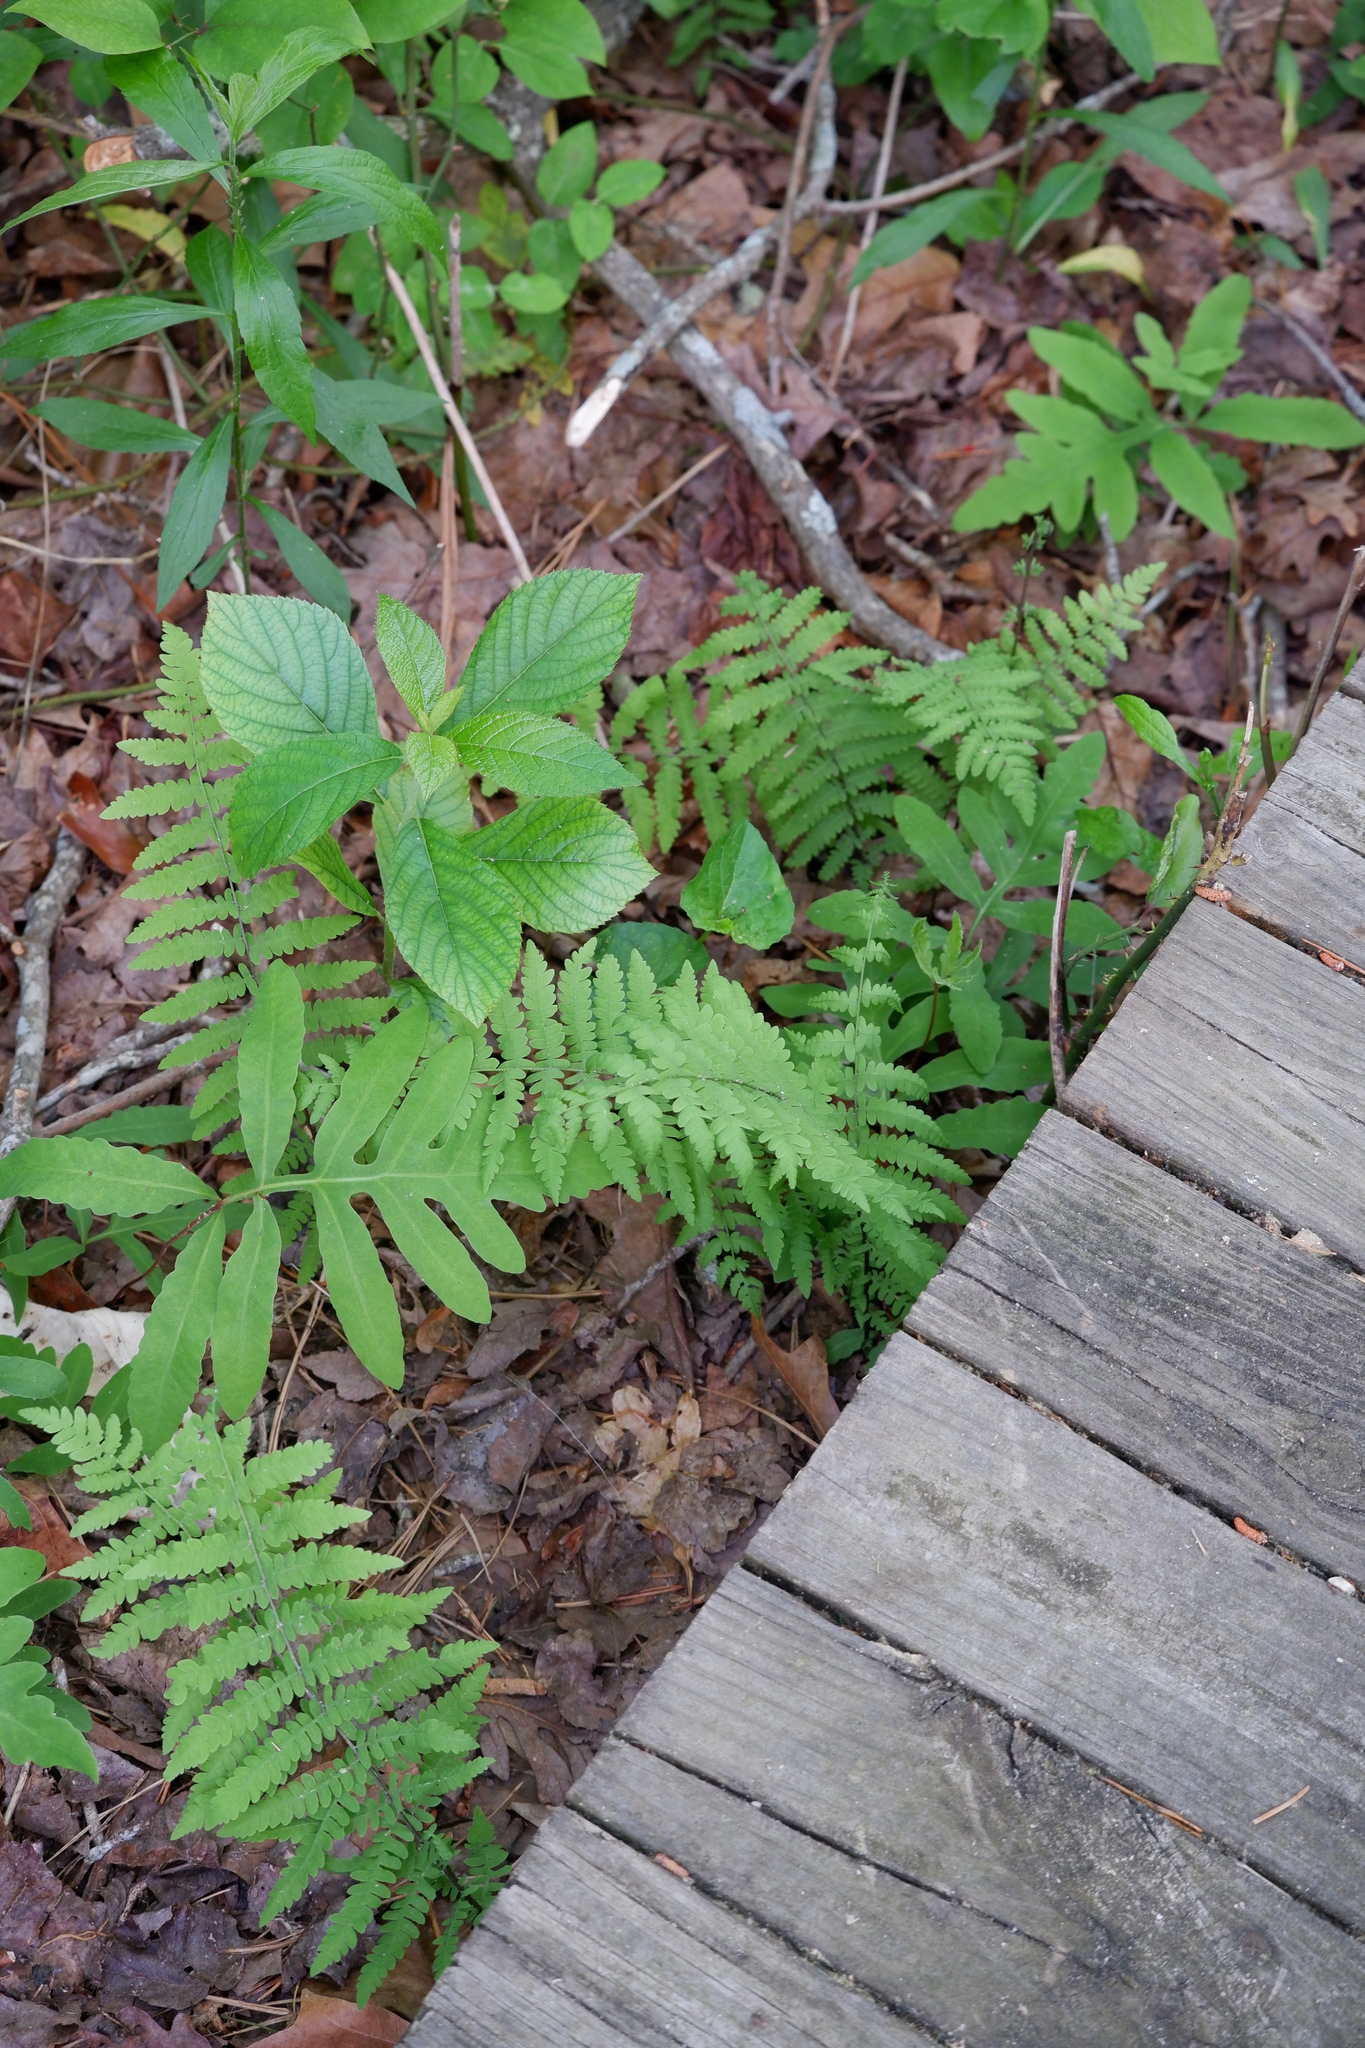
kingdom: Plantae
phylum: Tracheophyta
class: Polypodiopsida
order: Polypodiales
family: Thelypteridaceae
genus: Thelypteris
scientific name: Thelypteris palustris
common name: Marsh fern
